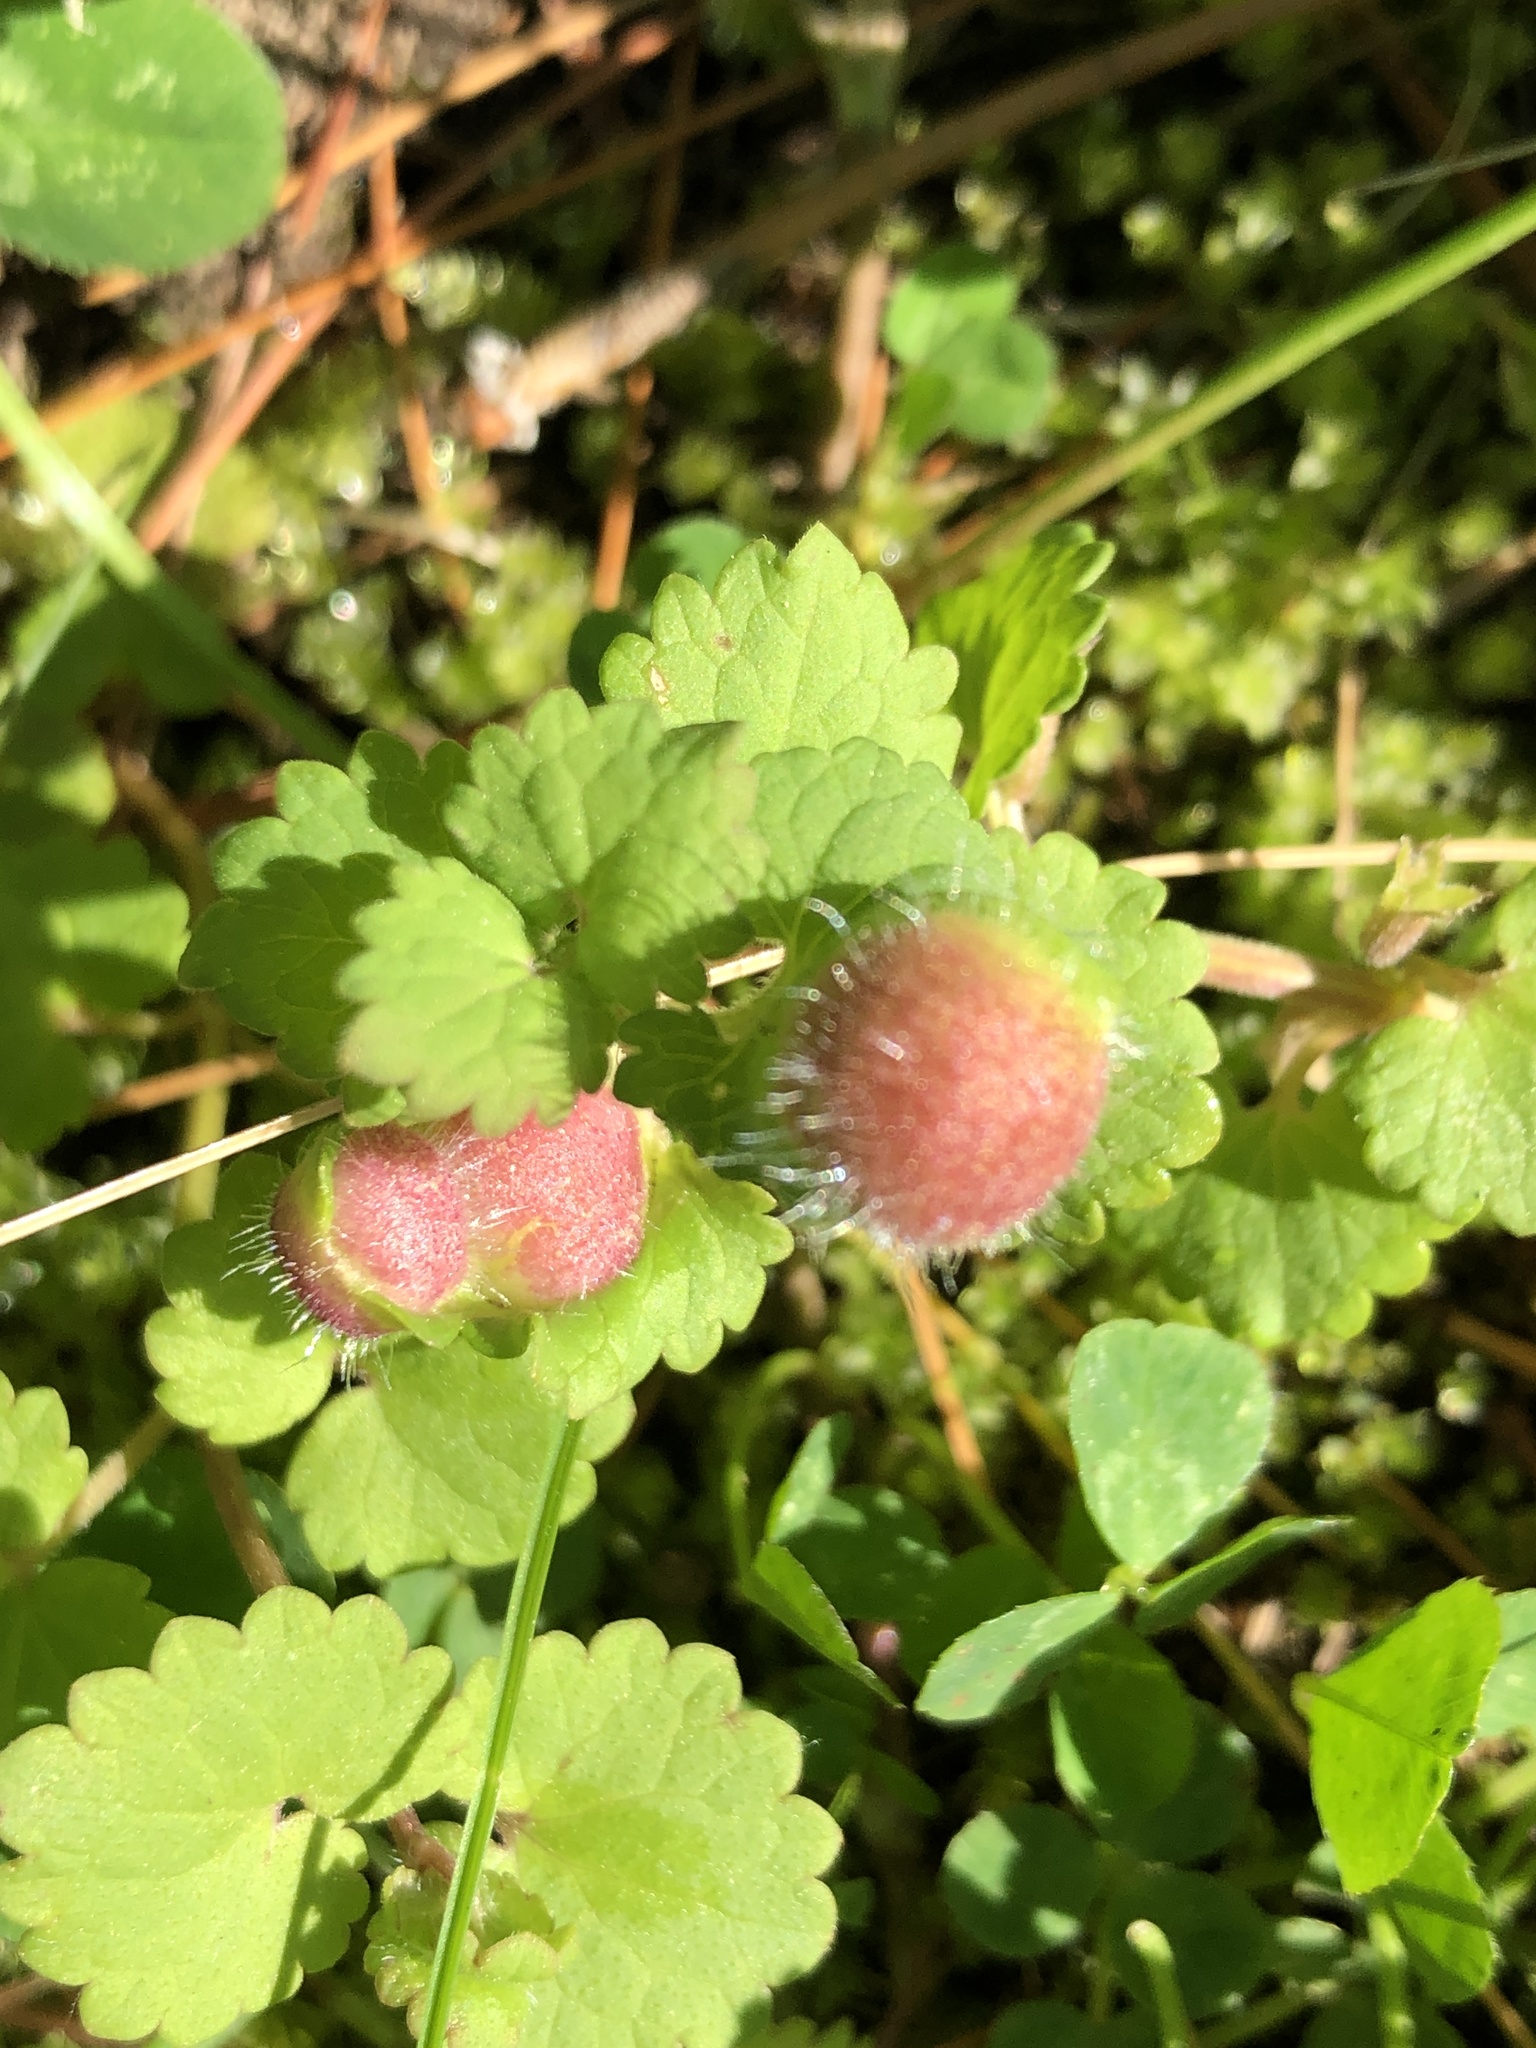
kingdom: Animalia
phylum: Arthropoda
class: Insecta
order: Hymenoptera
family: Cynipidae
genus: Liposthenes
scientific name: Liposthenes glechomae
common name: Gall wasp
